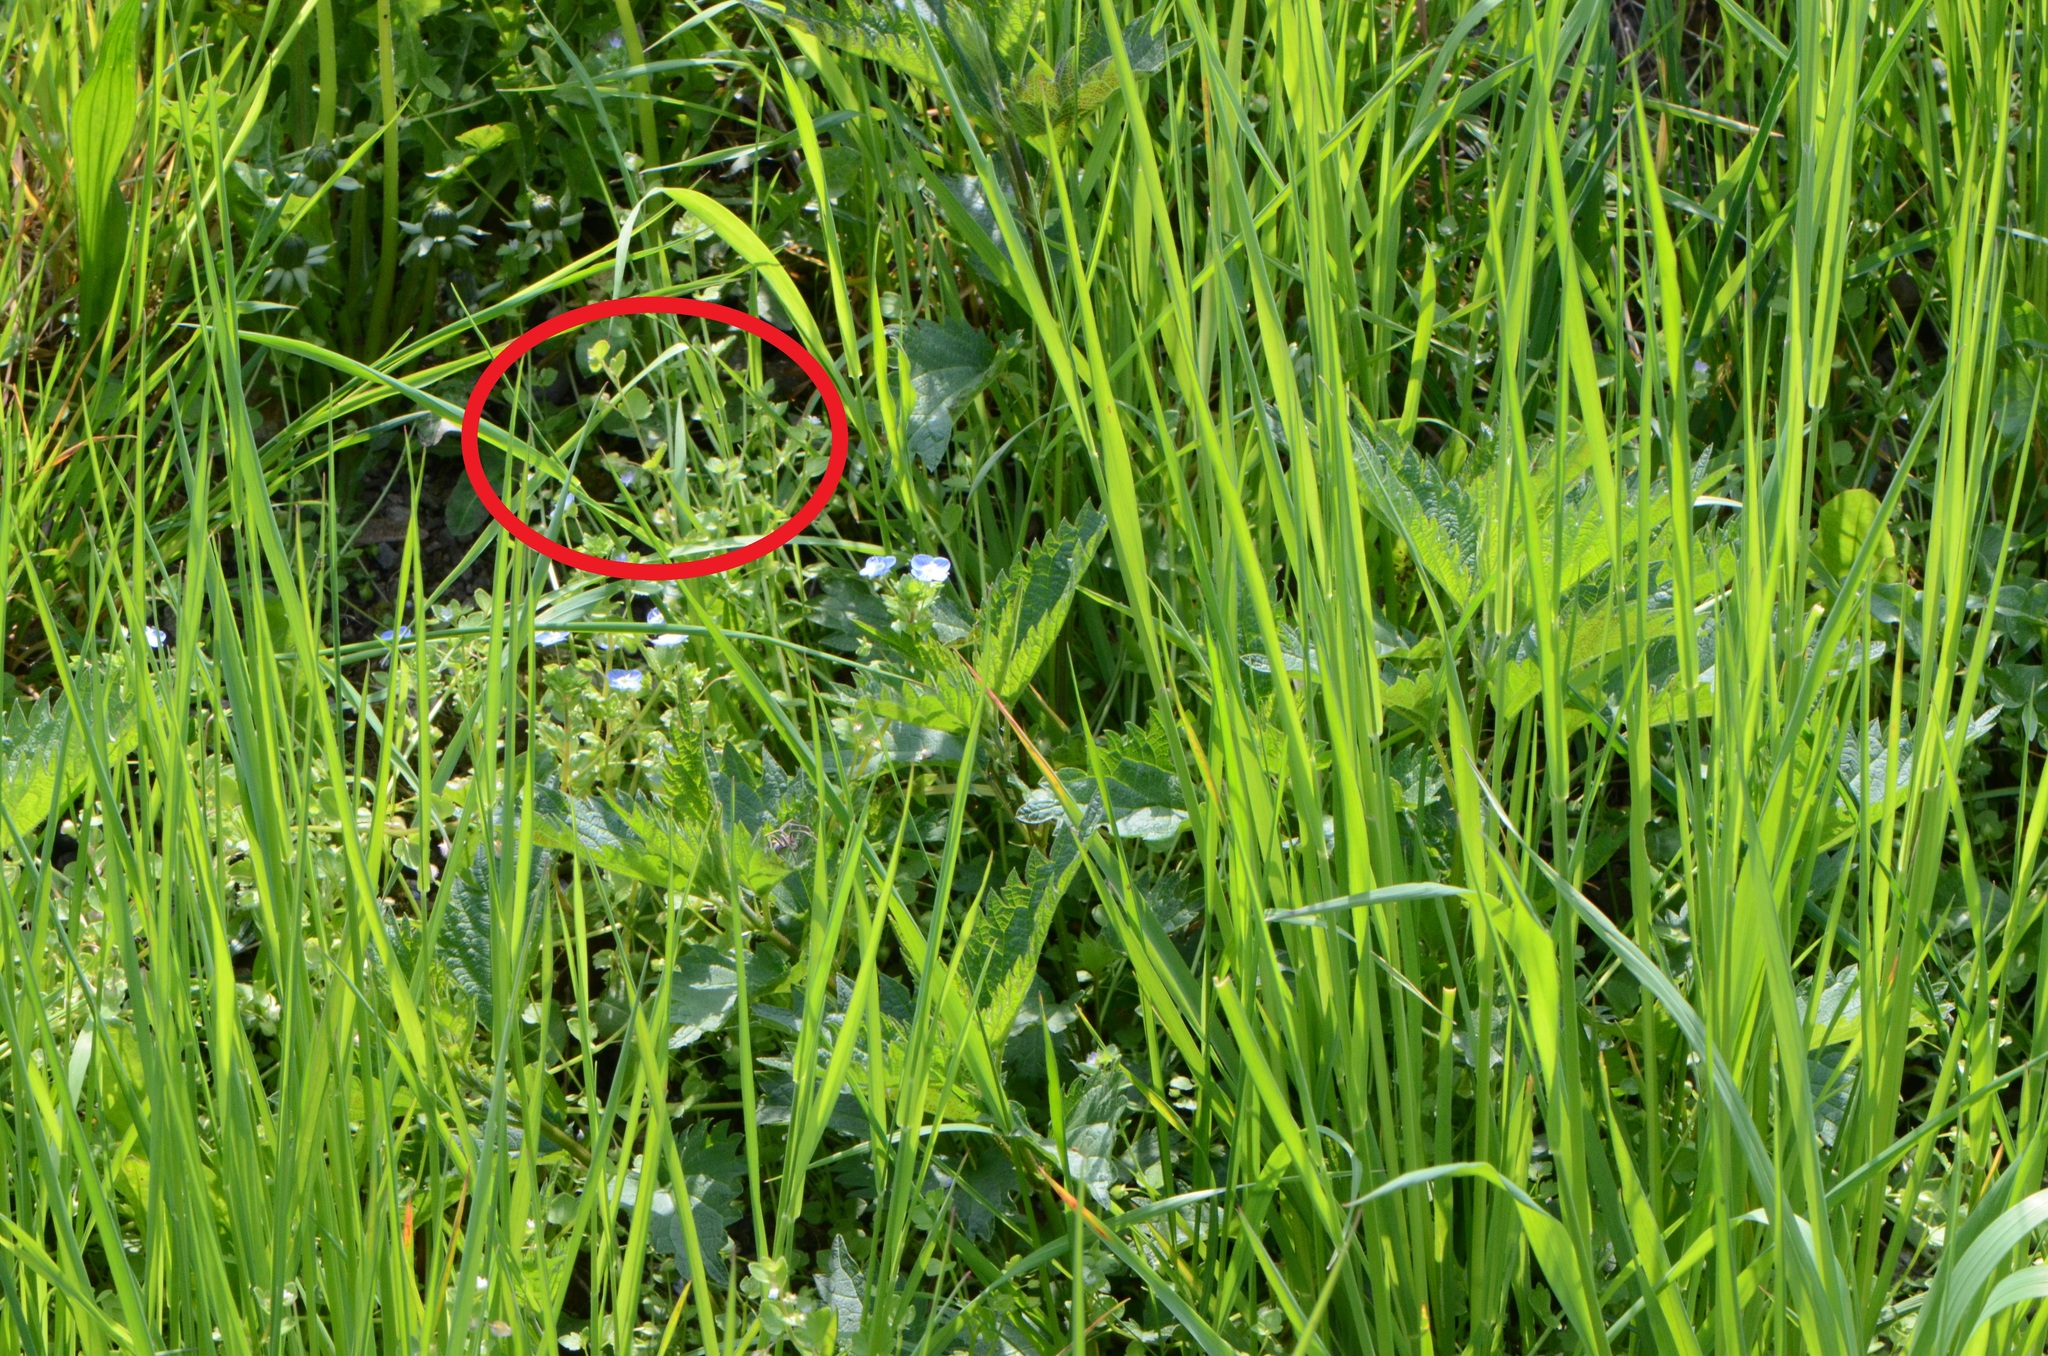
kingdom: Plantae
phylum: Tracheophyta
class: Magnoliopsida
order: Lamiales
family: Plantaginaceae
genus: Veronica
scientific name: Veronica sublobata
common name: False ivy-leaved speedwell
